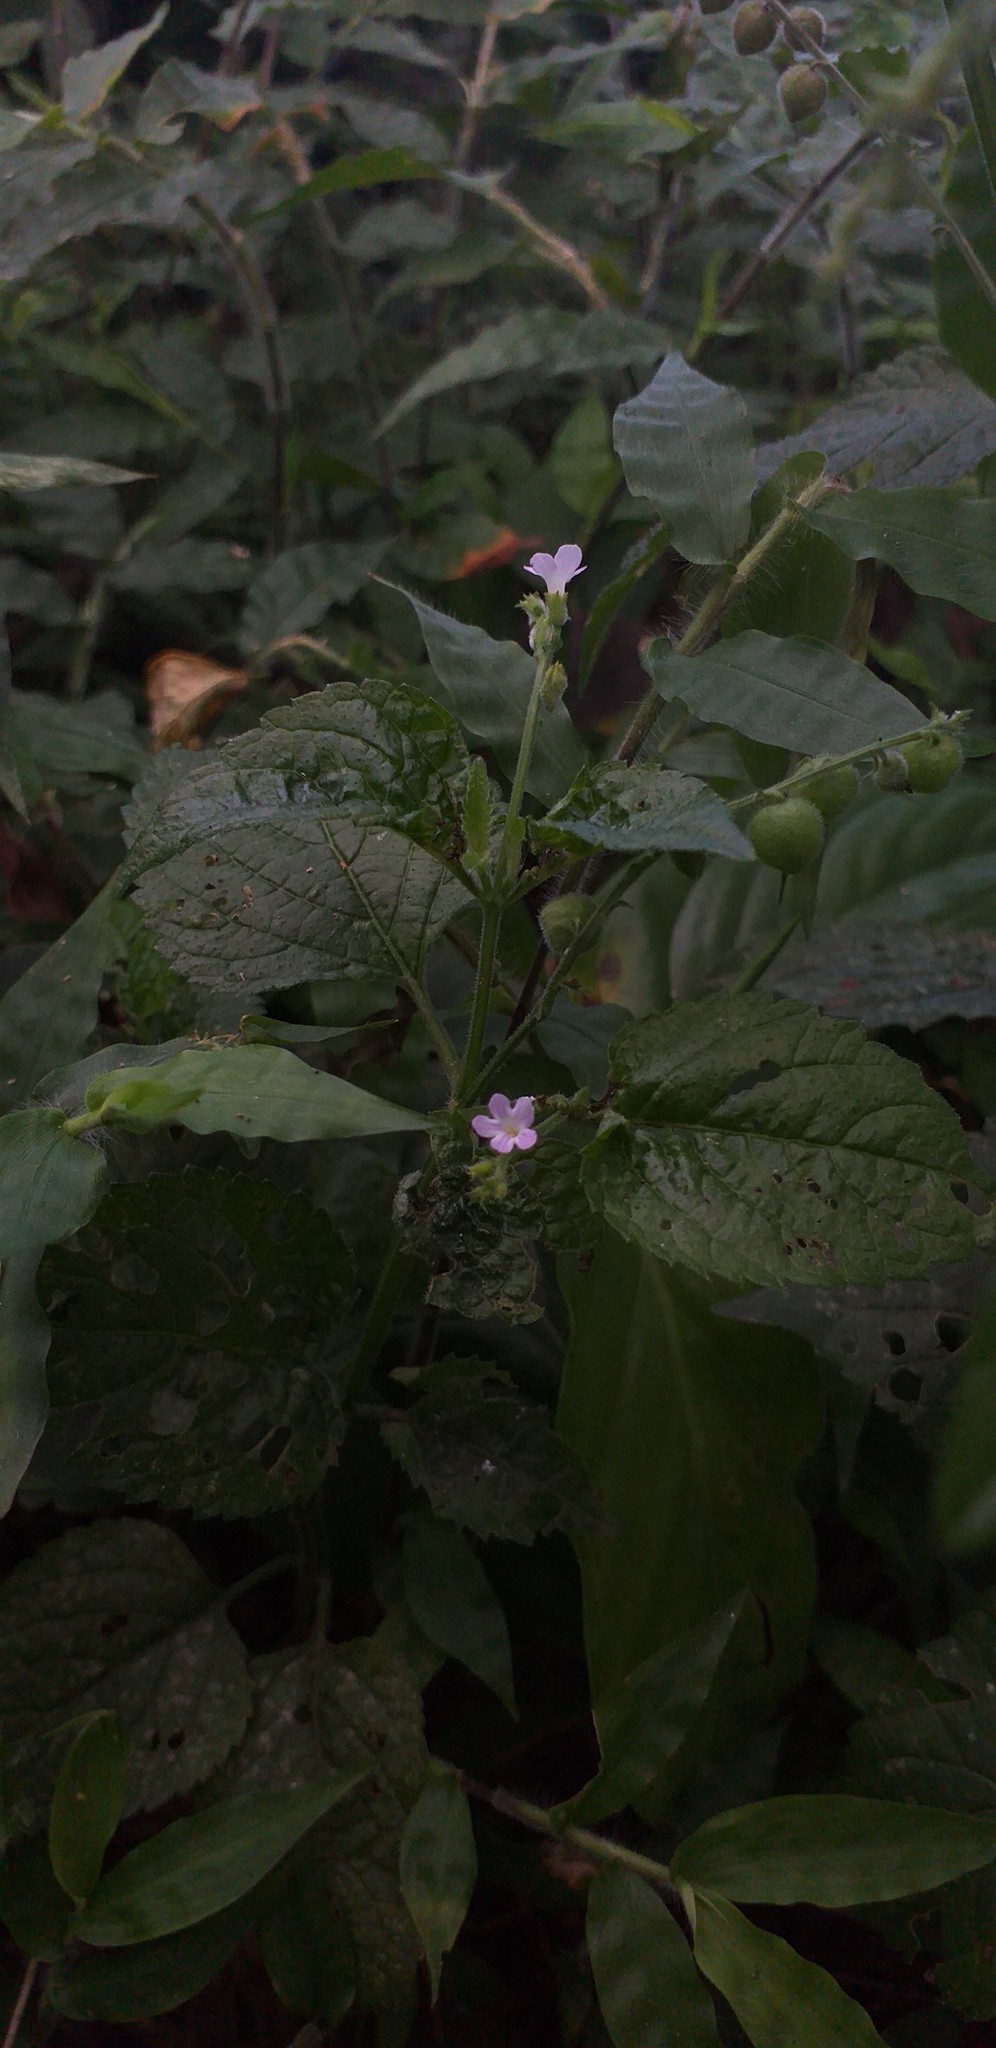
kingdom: Plantae
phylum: Tracheophyta
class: Magnoliopsida
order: Lamiales
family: Verbenaceae
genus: Priva
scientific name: Priva lappulacea
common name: Fasten-'pon-coat
